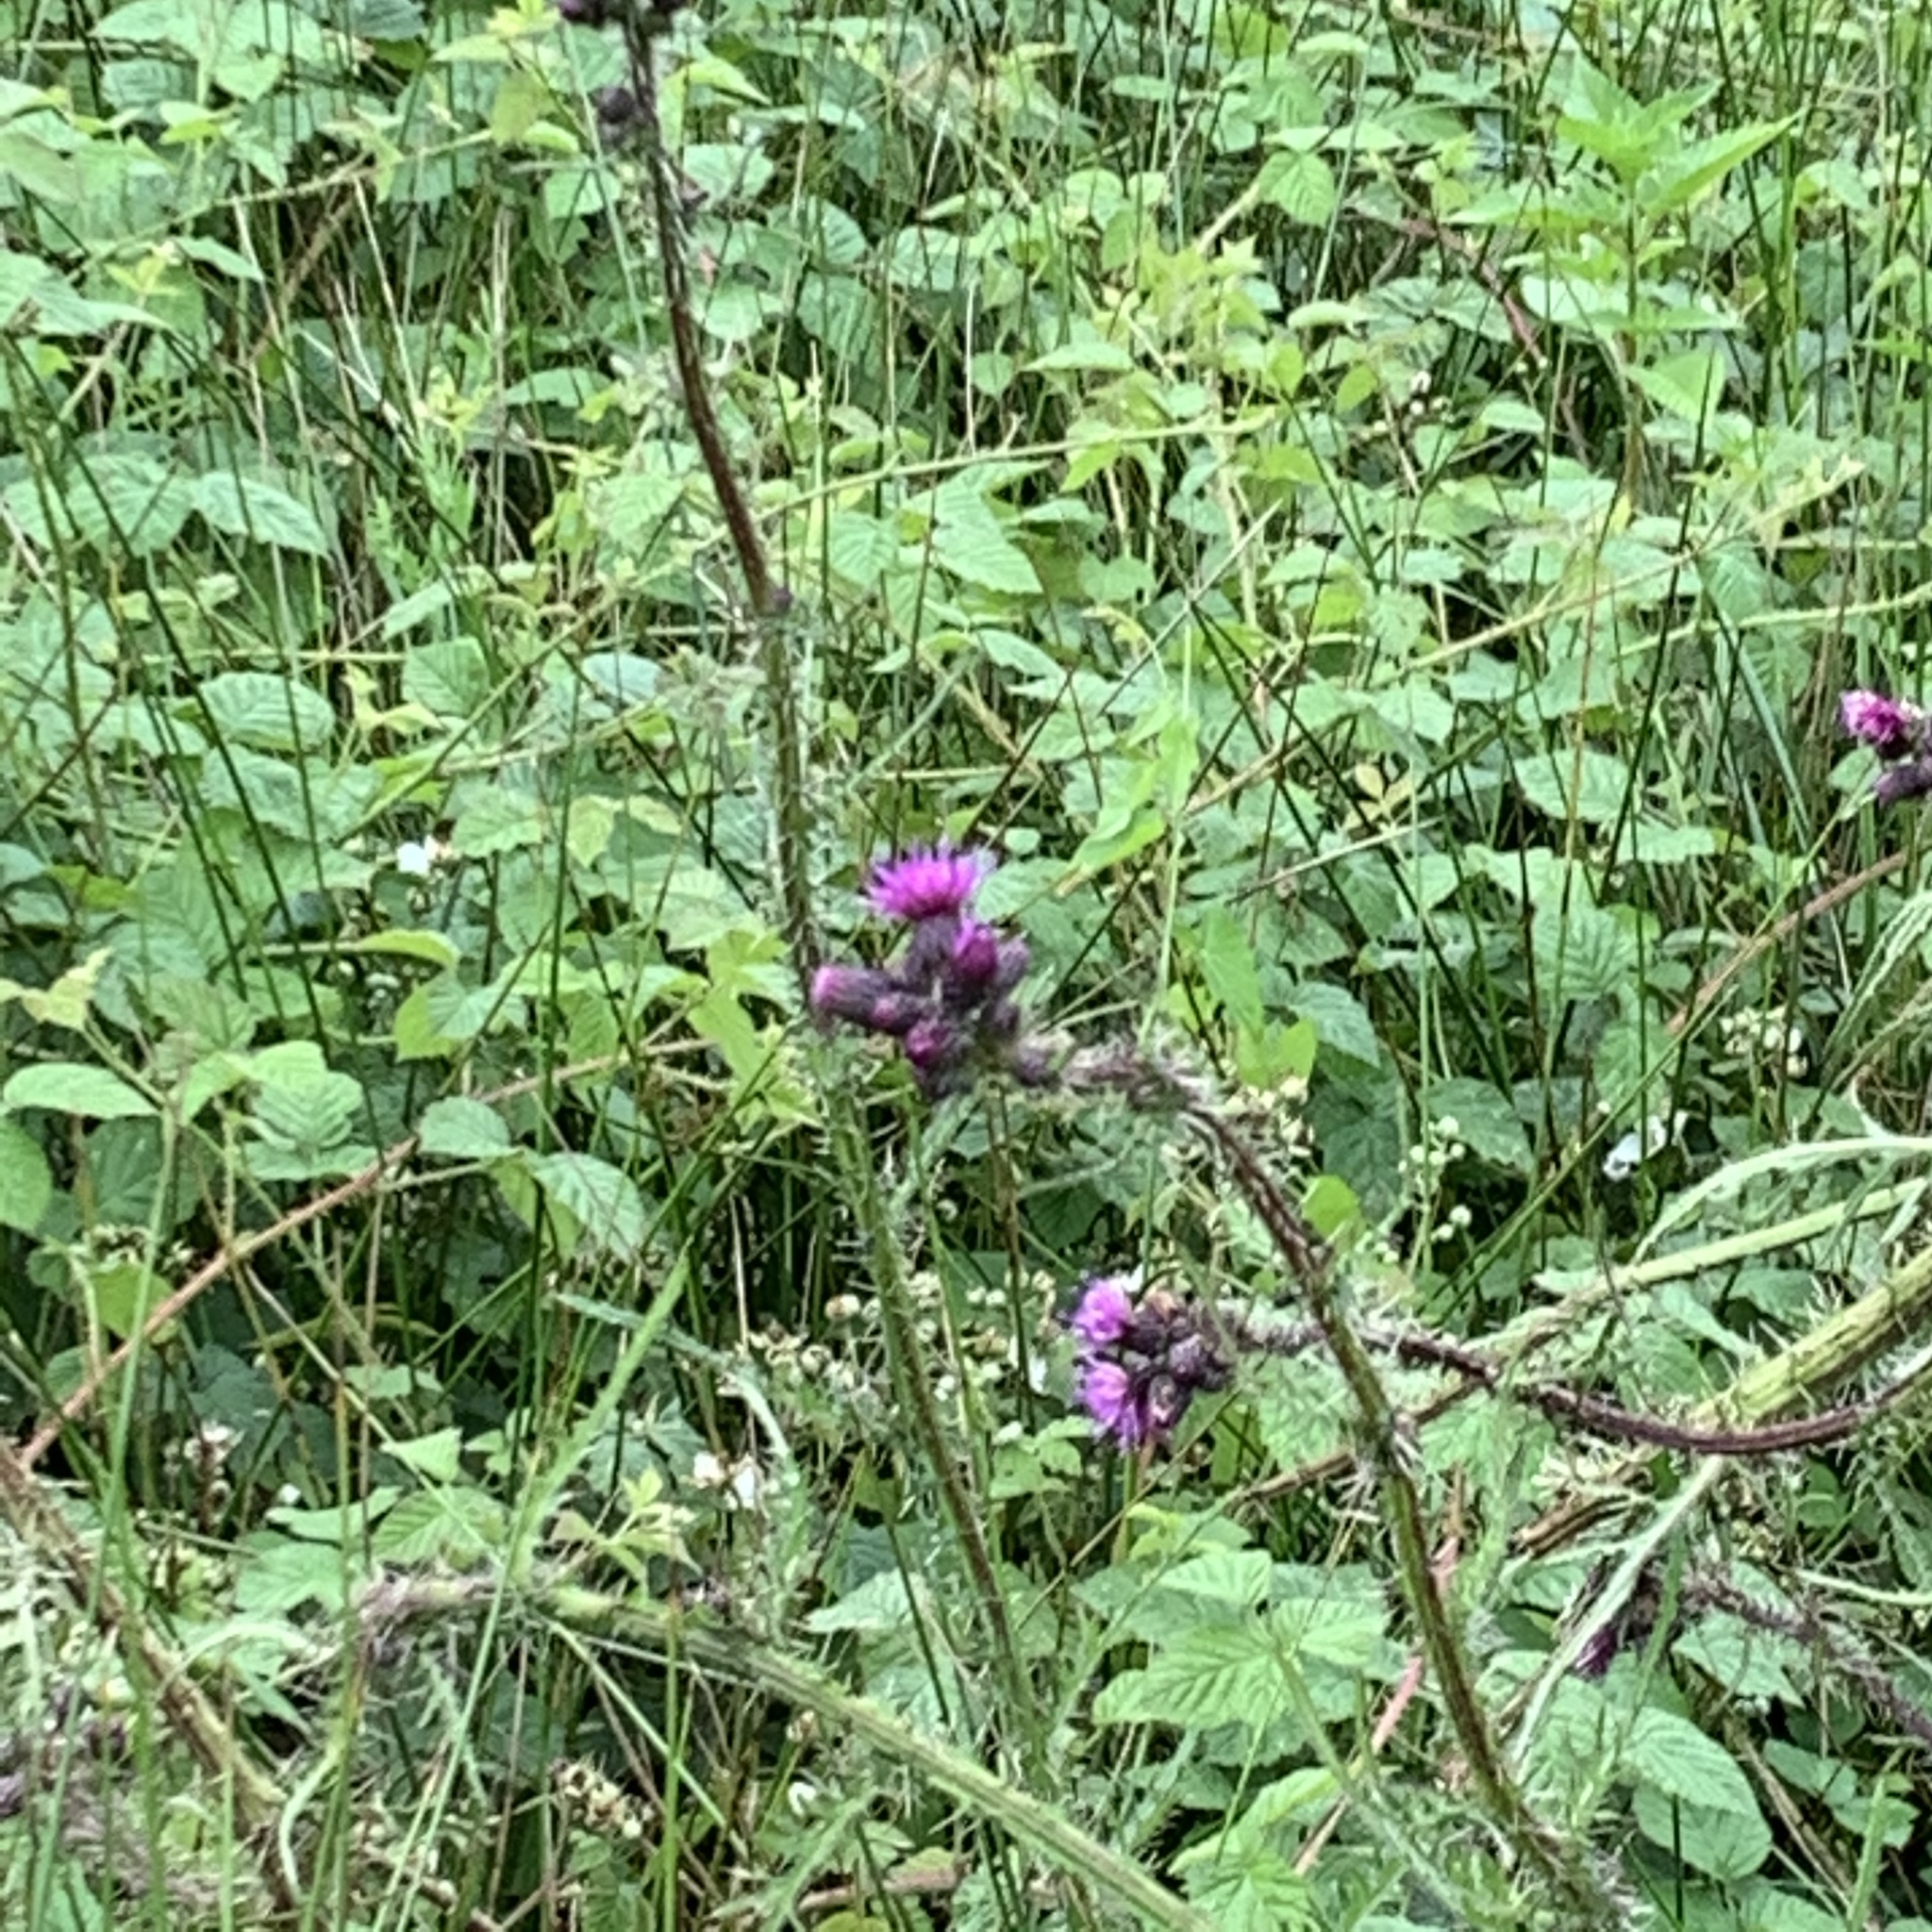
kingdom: Plantae
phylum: Tracheophyta
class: Magnoliopsida
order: Asterales
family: Asteraceae
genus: Cirsium
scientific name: Cirsium palustre
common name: Marsh thistle
